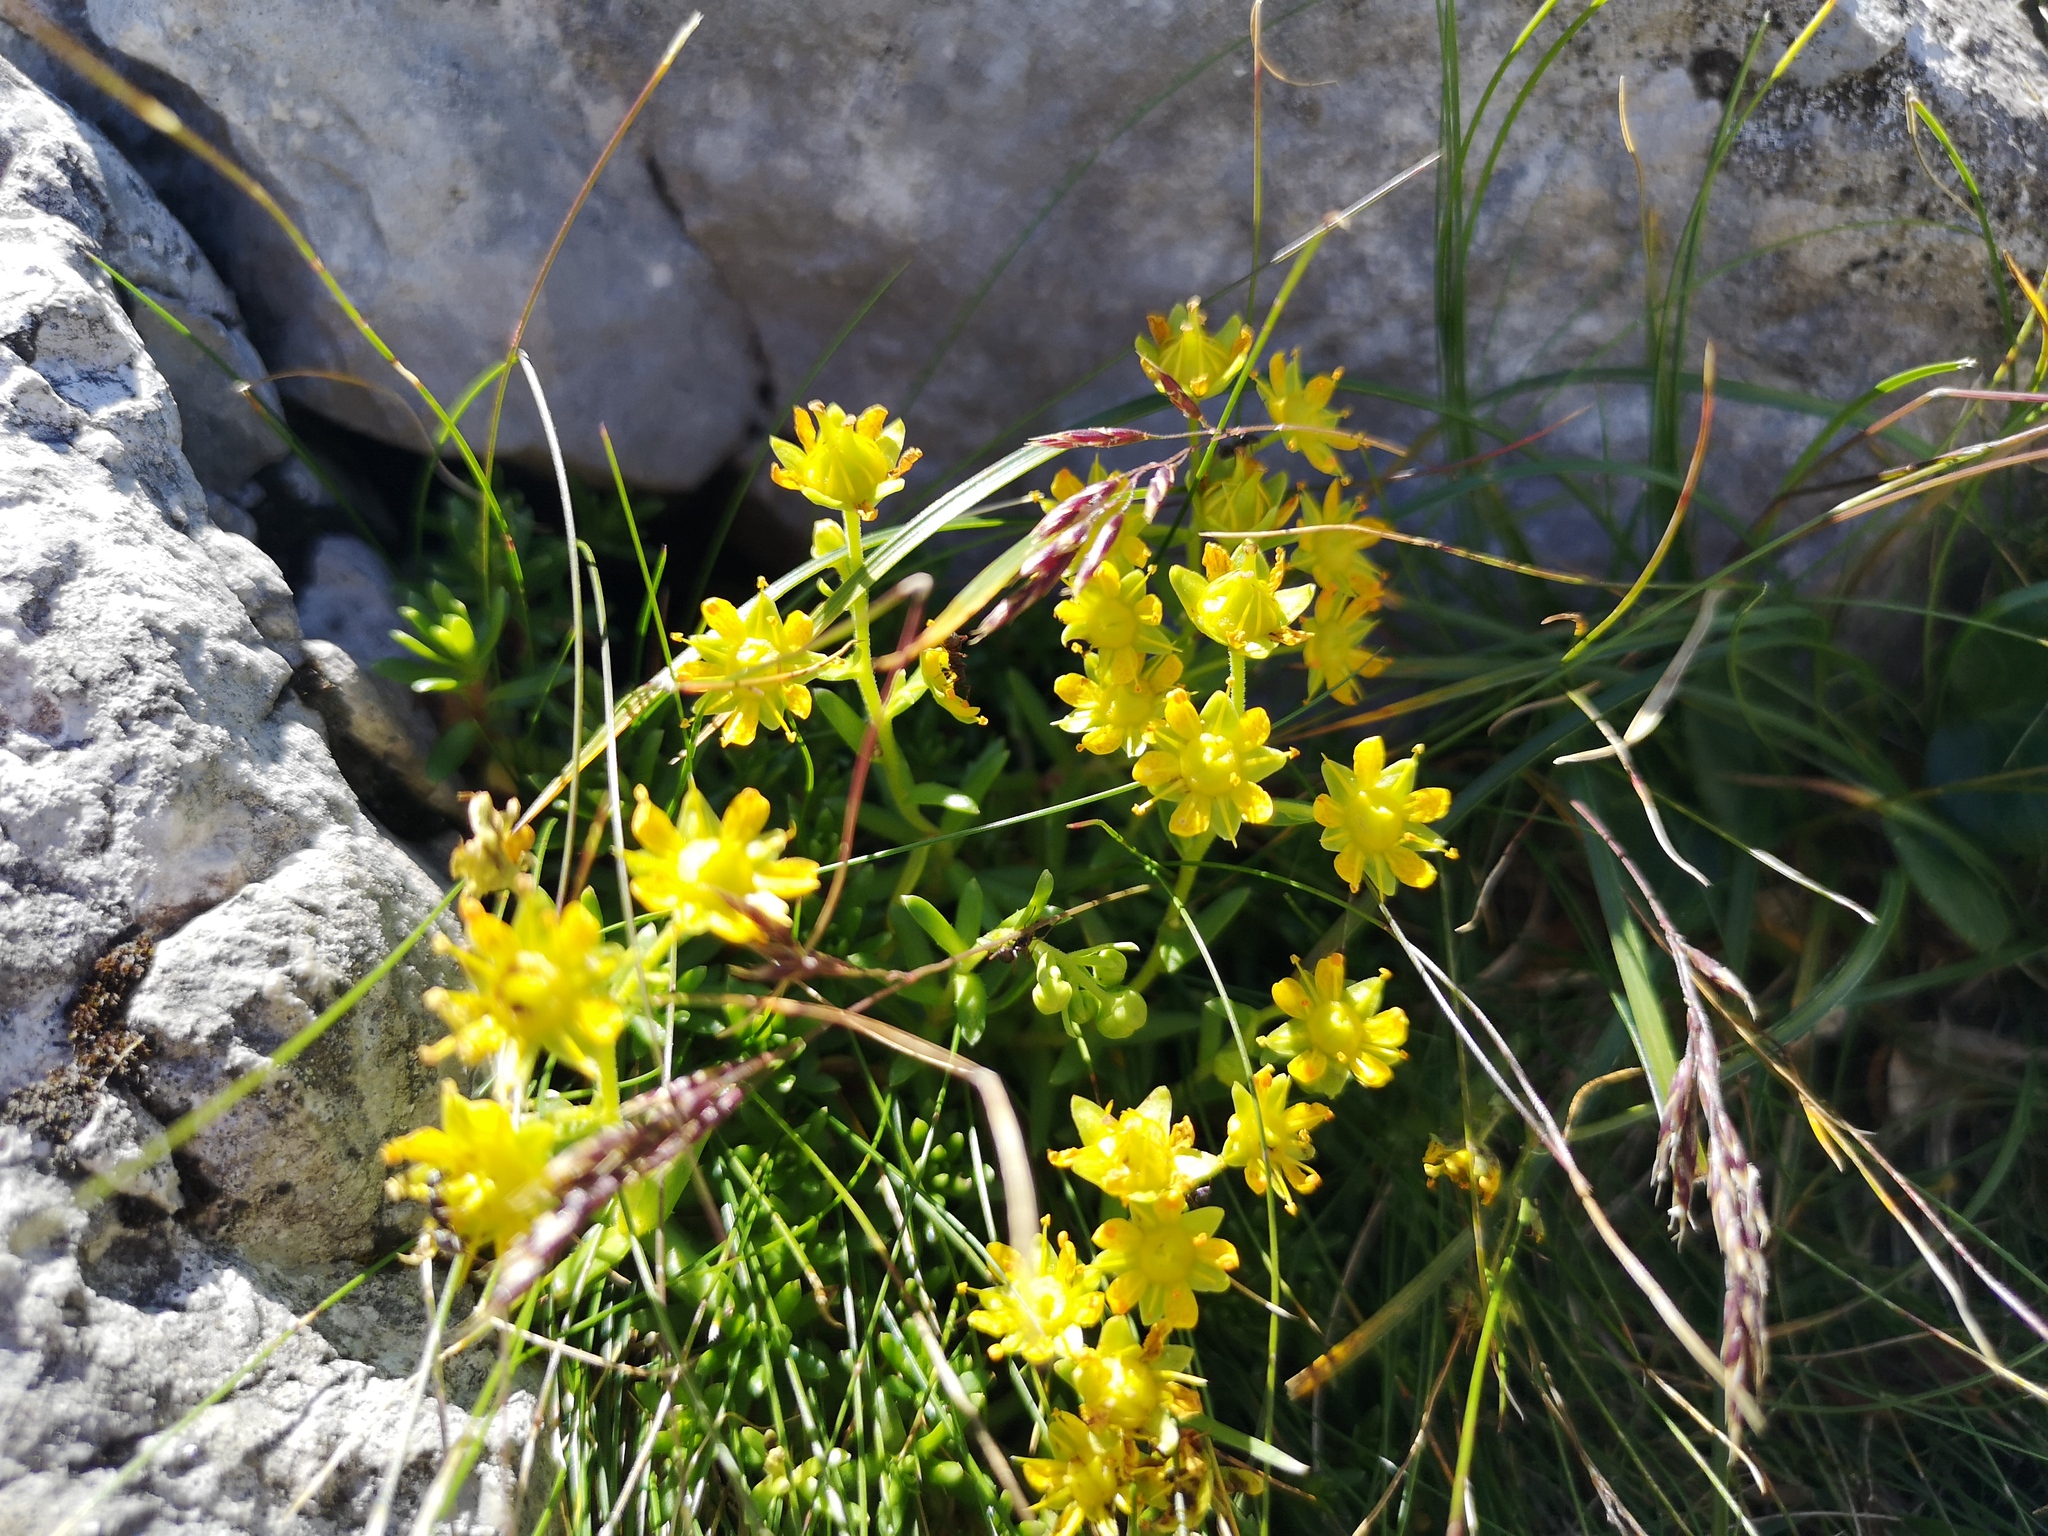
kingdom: Plantae
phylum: Tracheophyta
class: Magnoliopsida
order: Saxifragales
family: Saxifragaceae
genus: Saxifraga
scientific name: Saxifraga aizoides
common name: Yellow mountain saxifrage
